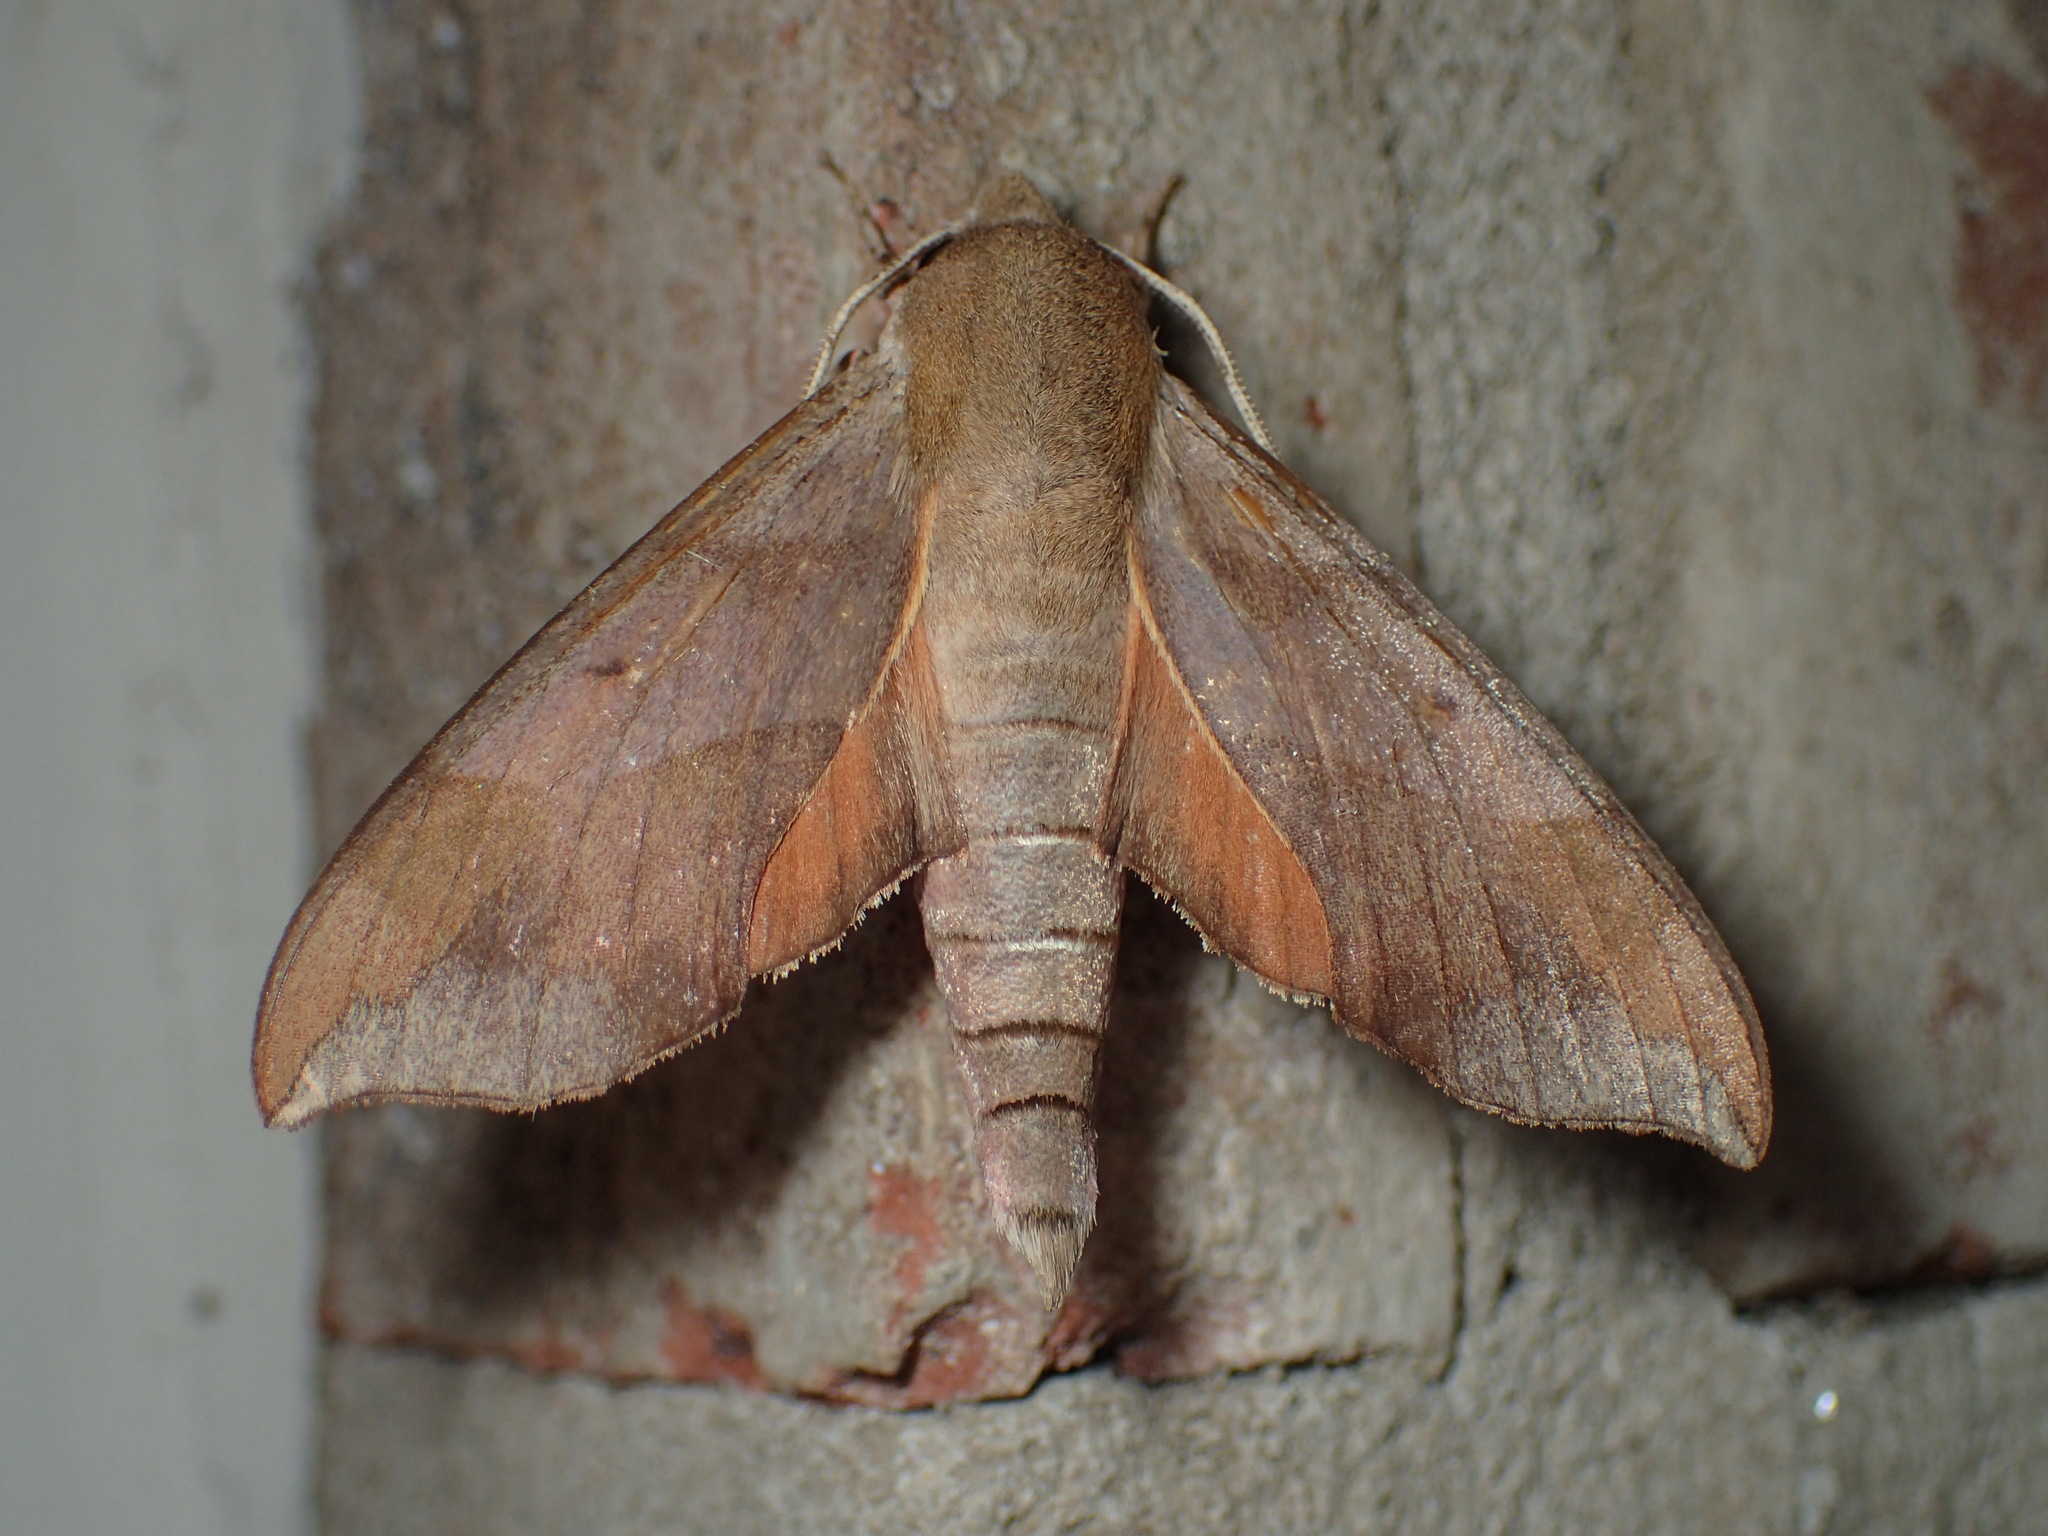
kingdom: Animalia
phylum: Arthropoda
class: Insecta
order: Lepidoptera
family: Sphingidae
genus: Darapsa
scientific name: Darapsa myron
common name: Hog sphinx
